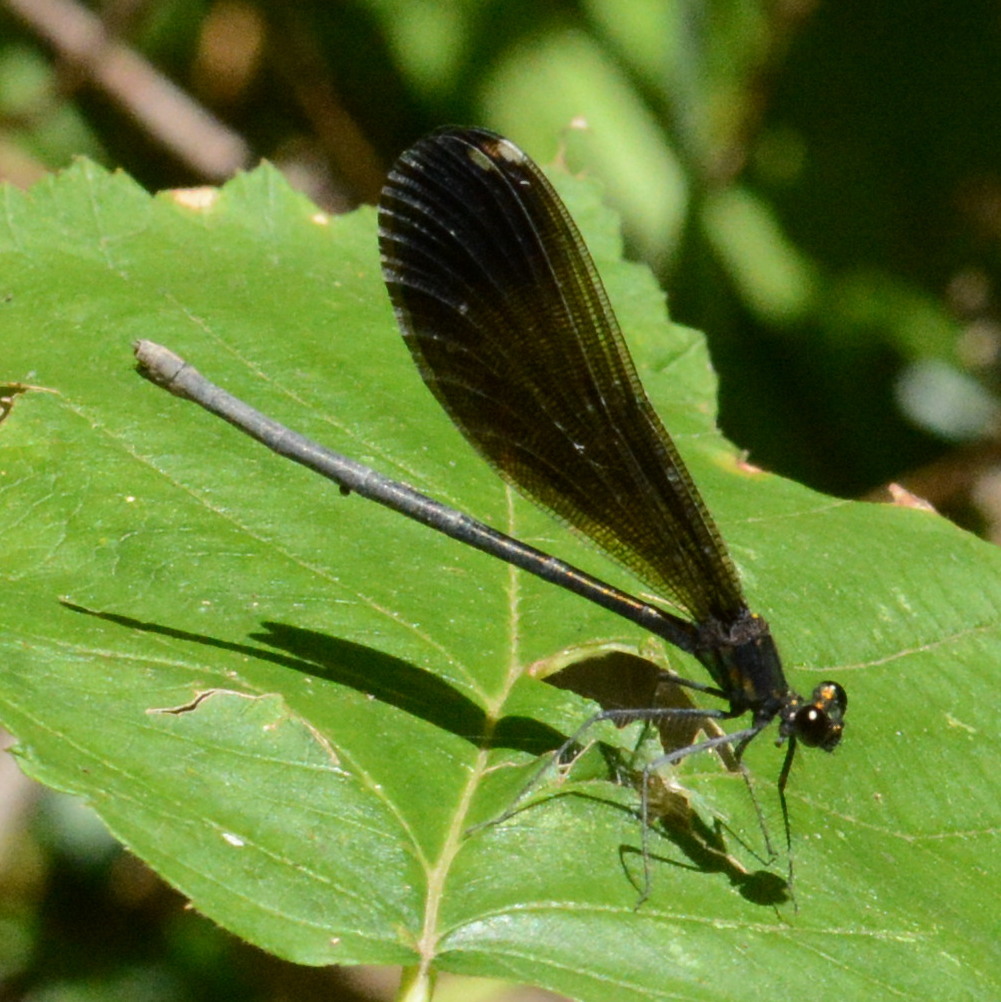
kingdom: Animalia
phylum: Arthropoda
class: Insecta
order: Odonata
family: Calopterygidae
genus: Calopteryx
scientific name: Calopteryx maculata
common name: Ebony jewelwing
